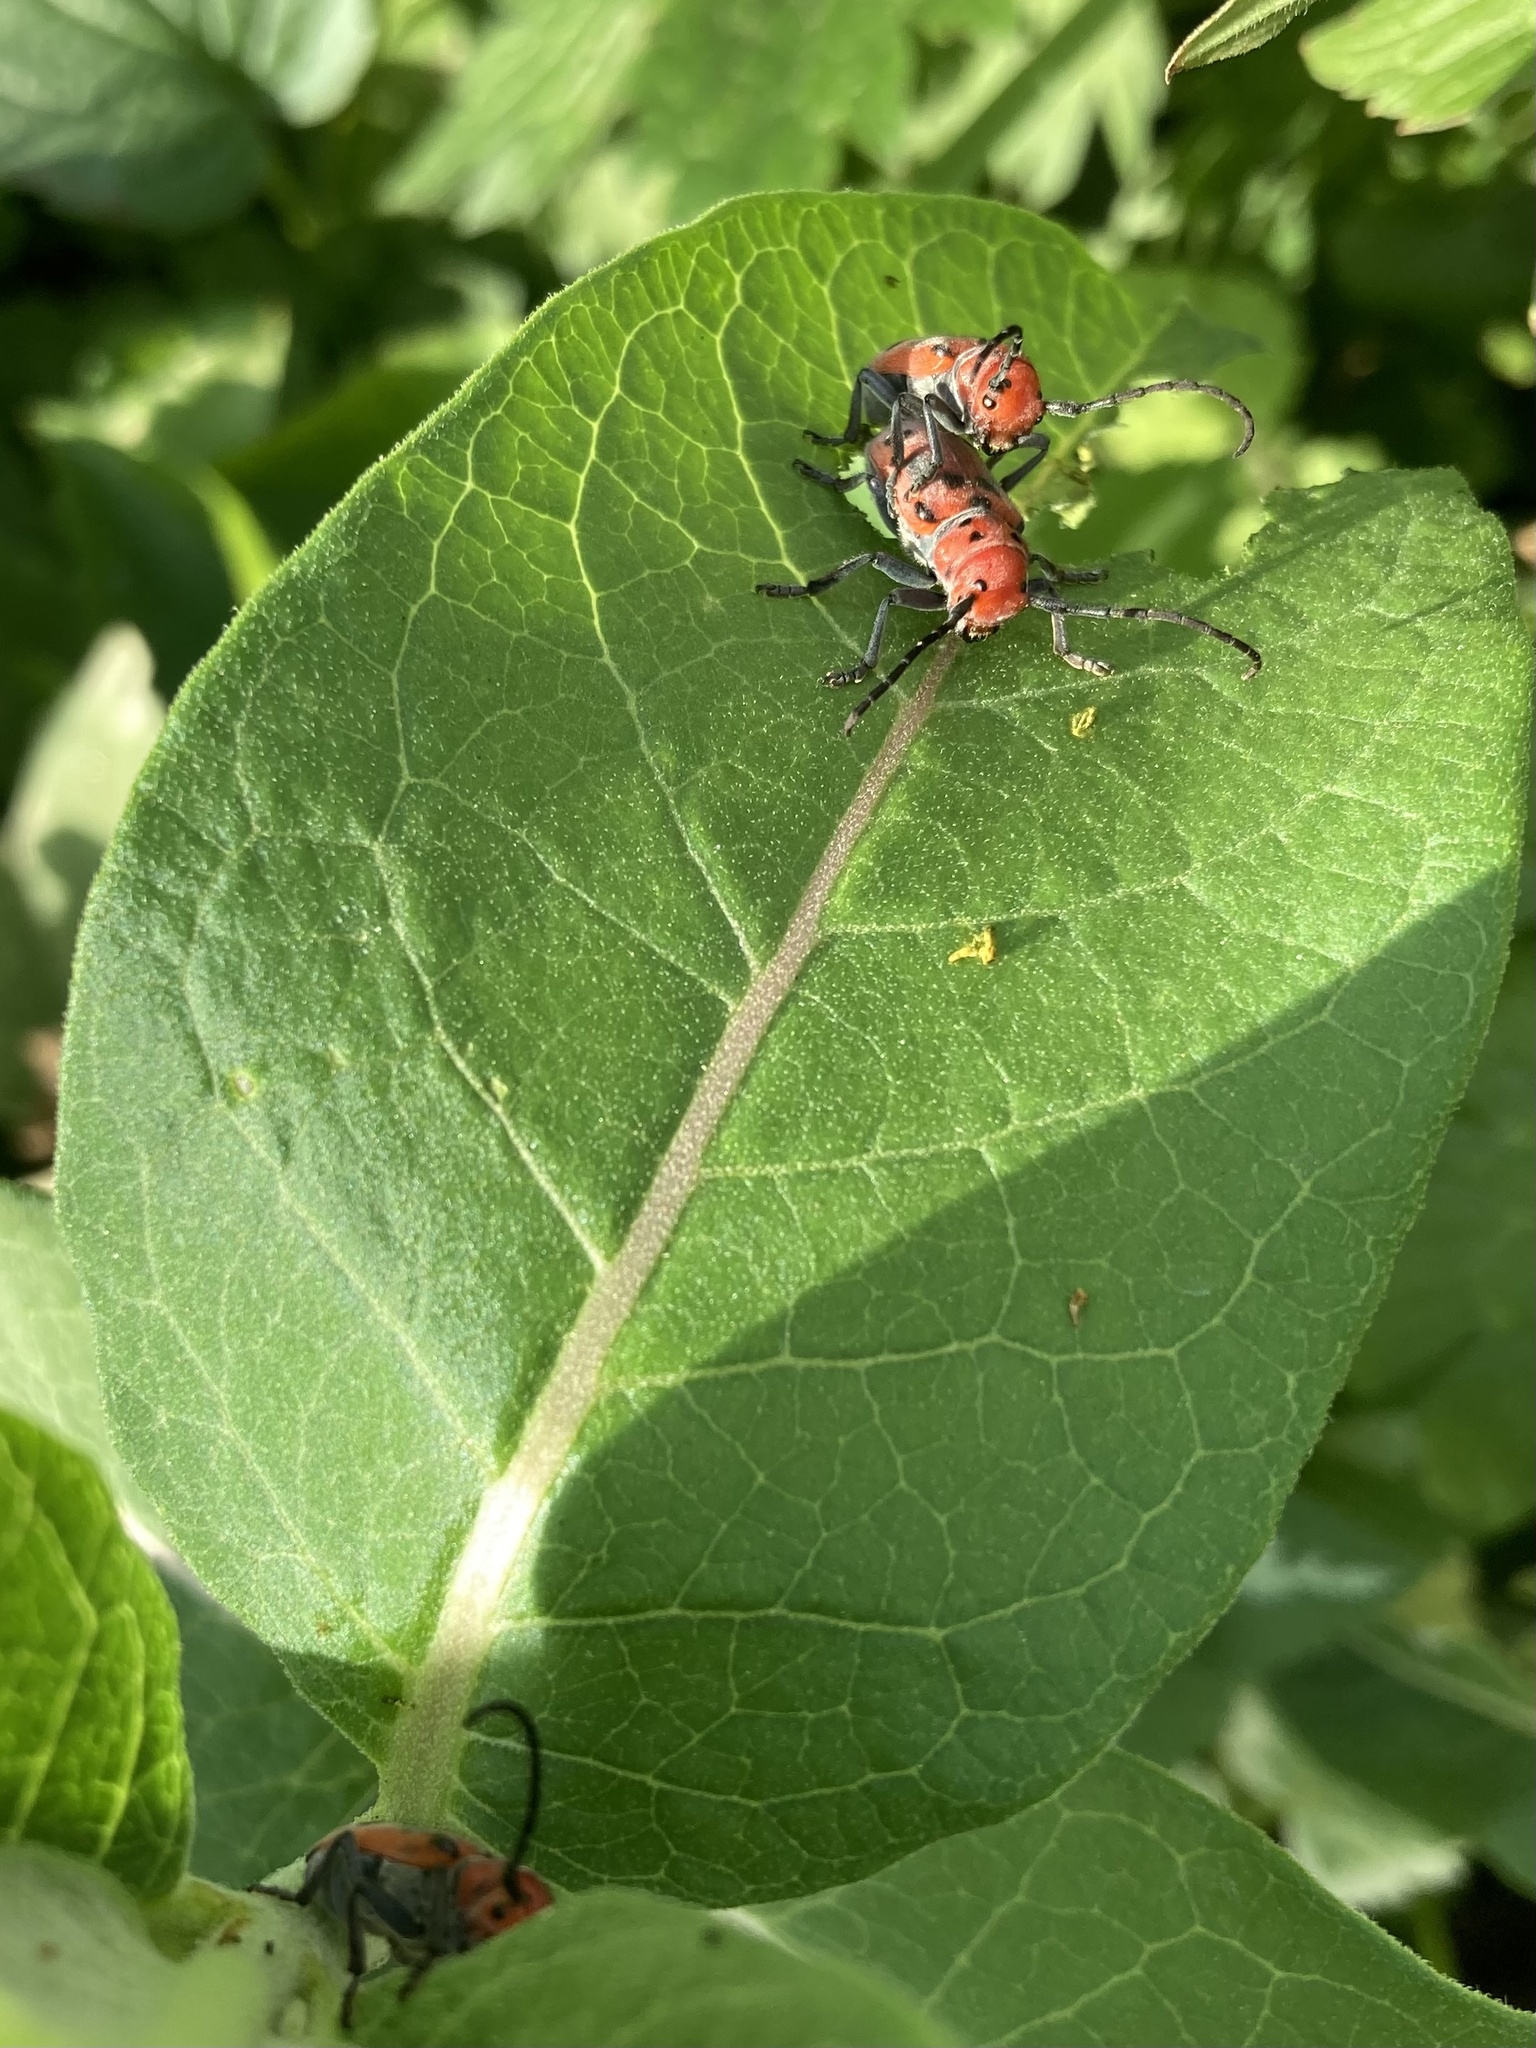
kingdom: Animalia
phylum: Arthropoda
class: Insecta
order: Coleoptera
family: Cerambycidae
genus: Tetraopes
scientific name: Tetraopes tetrophthalmus
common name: Red milkweed beetle
